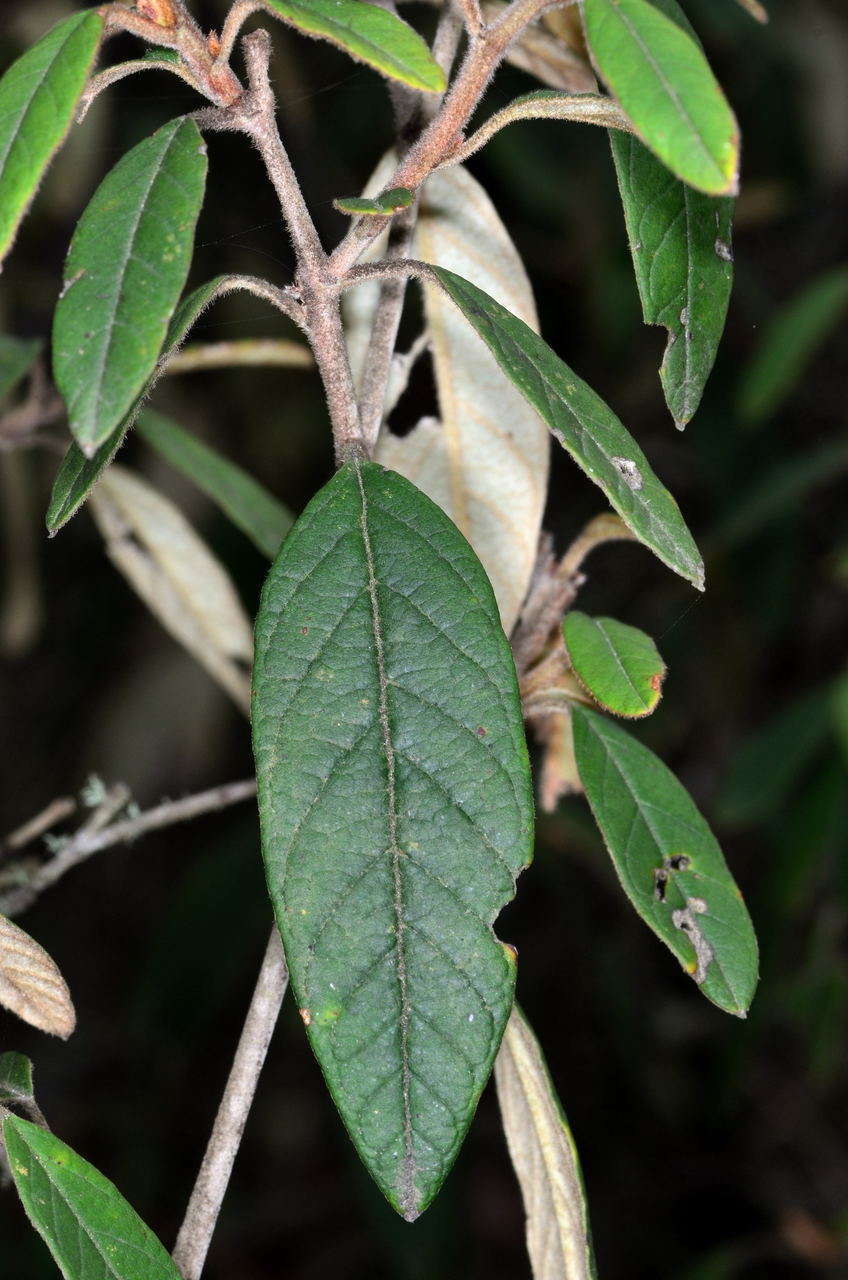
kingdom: Plantae
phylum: Tracheophyta
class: Magnoliopsida
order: Rosales
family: Rhamnaceae
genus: Pomaderris
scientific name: Pomaderris wendlandiana
